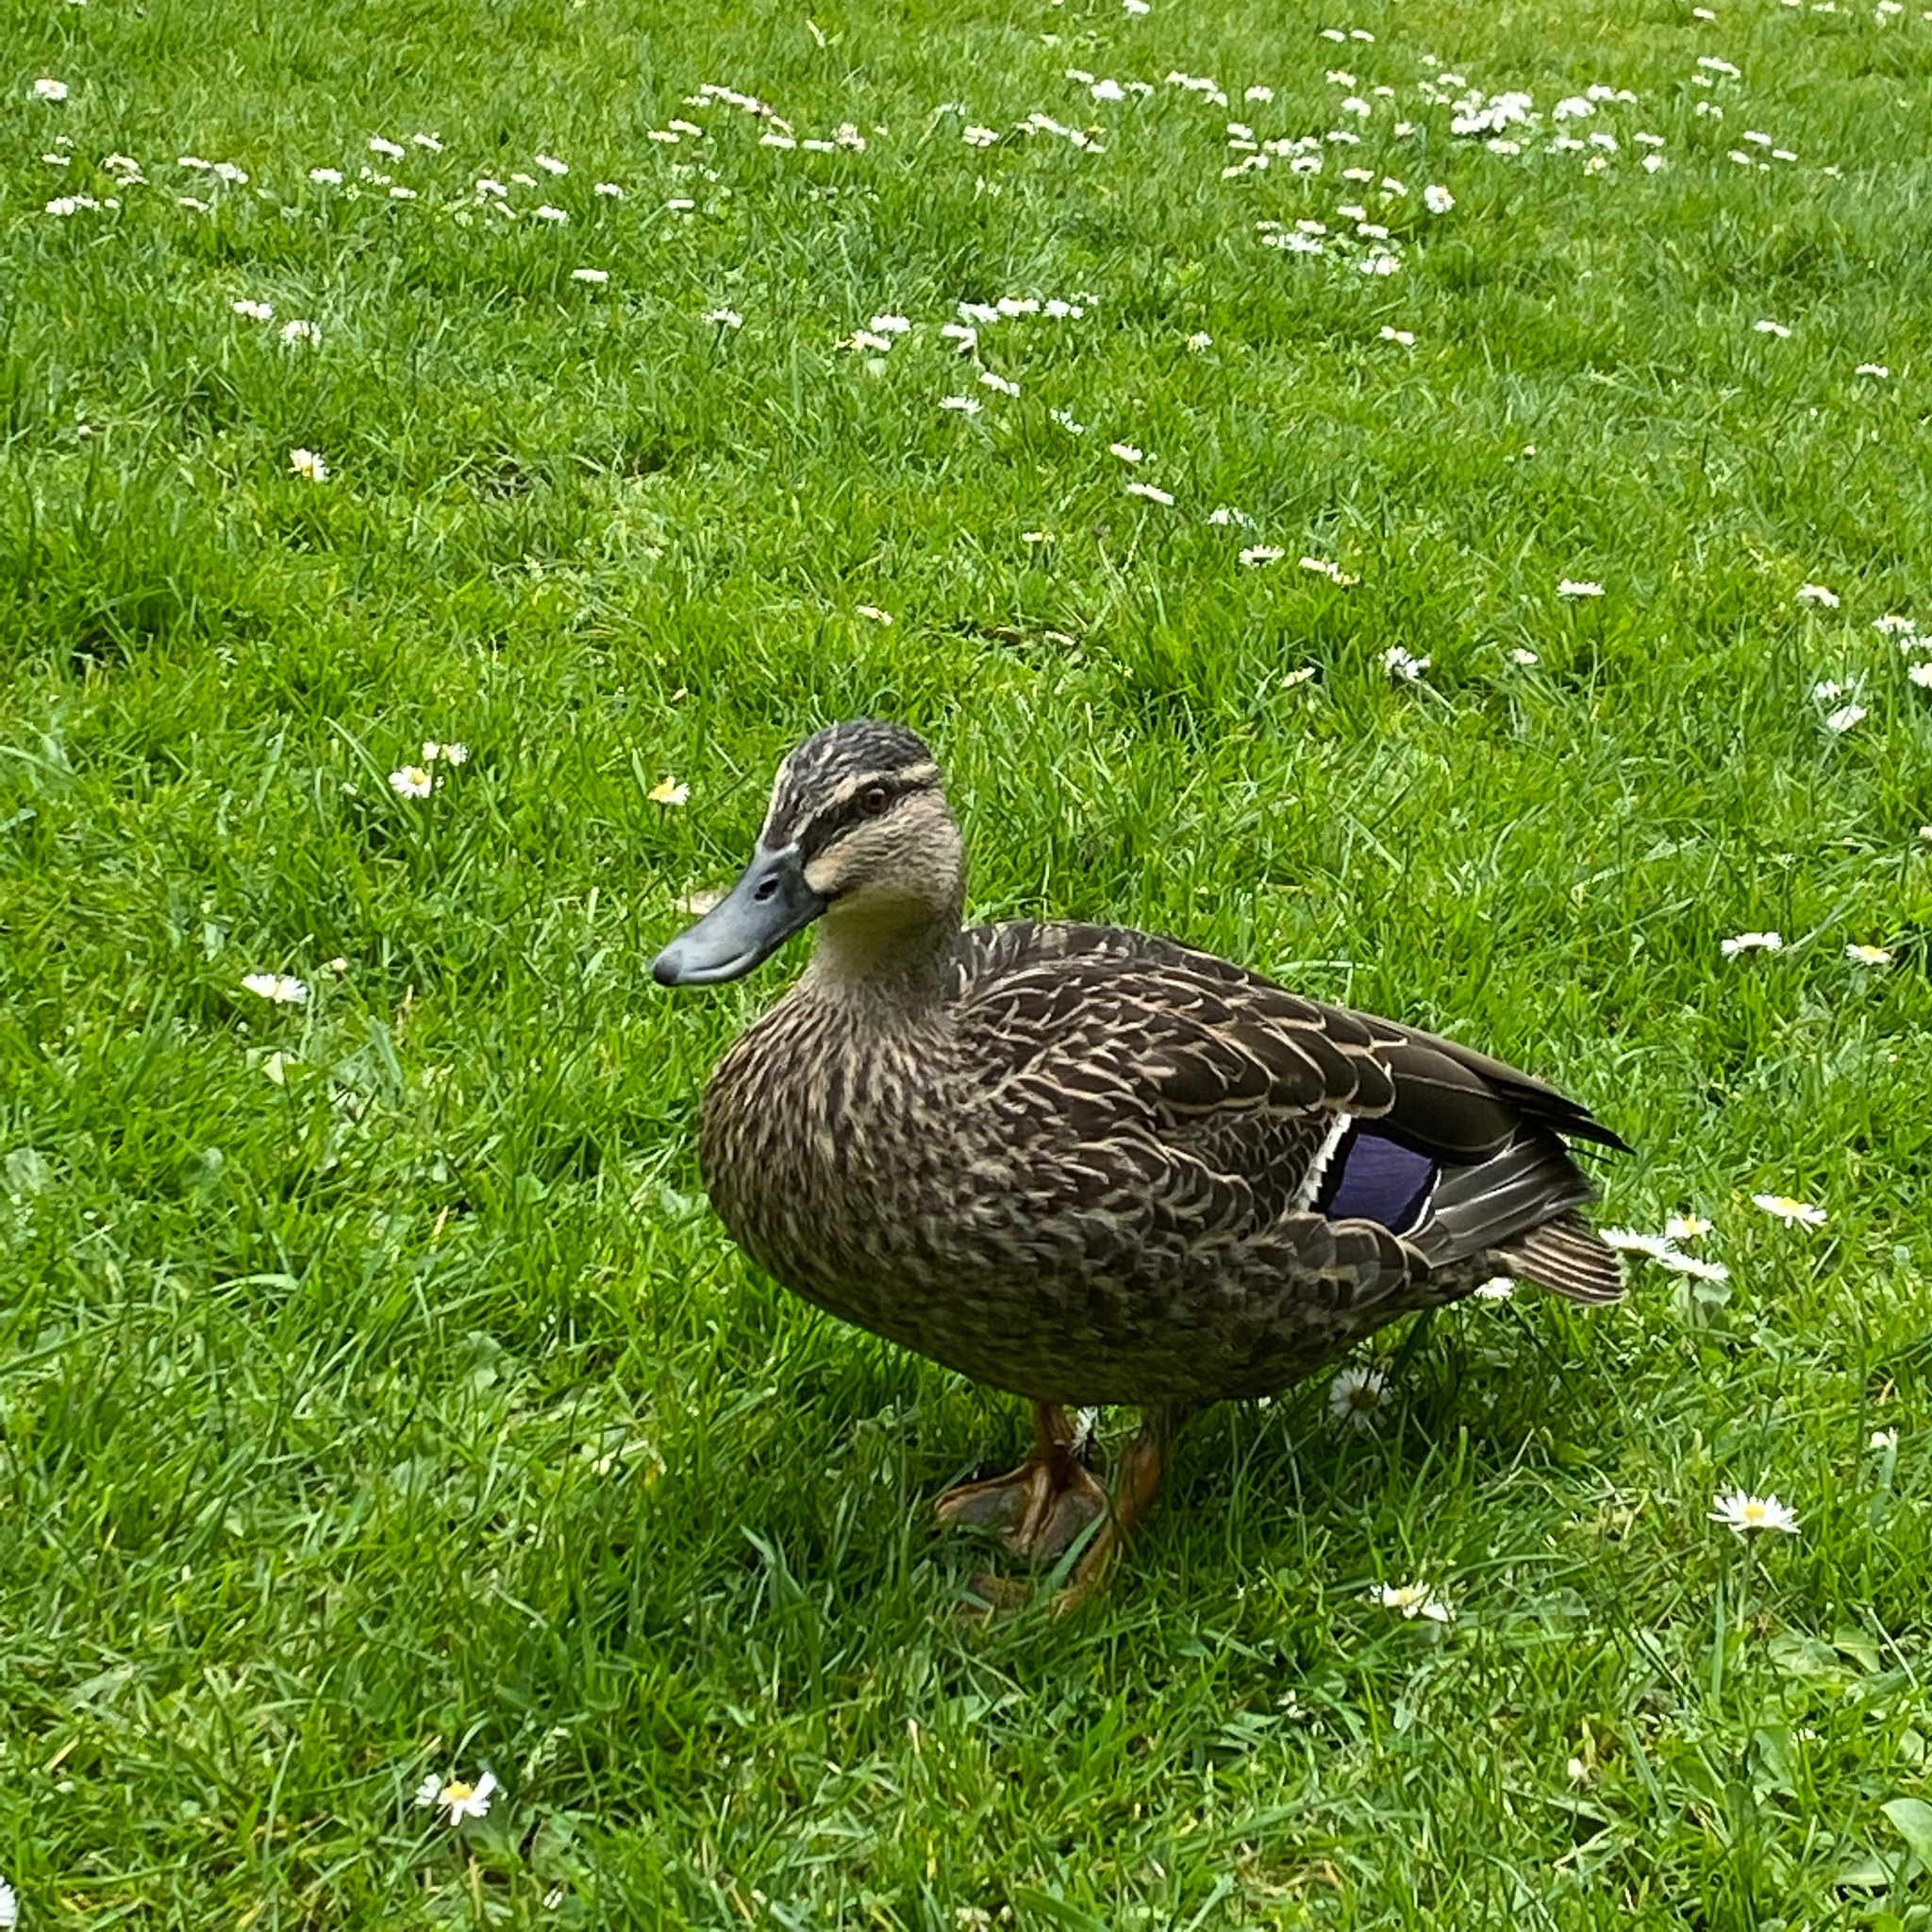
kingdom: Animalia
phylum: Chordata
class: Aves
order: Anseriformes
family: Anatidae
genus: Anas
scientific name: Anas
